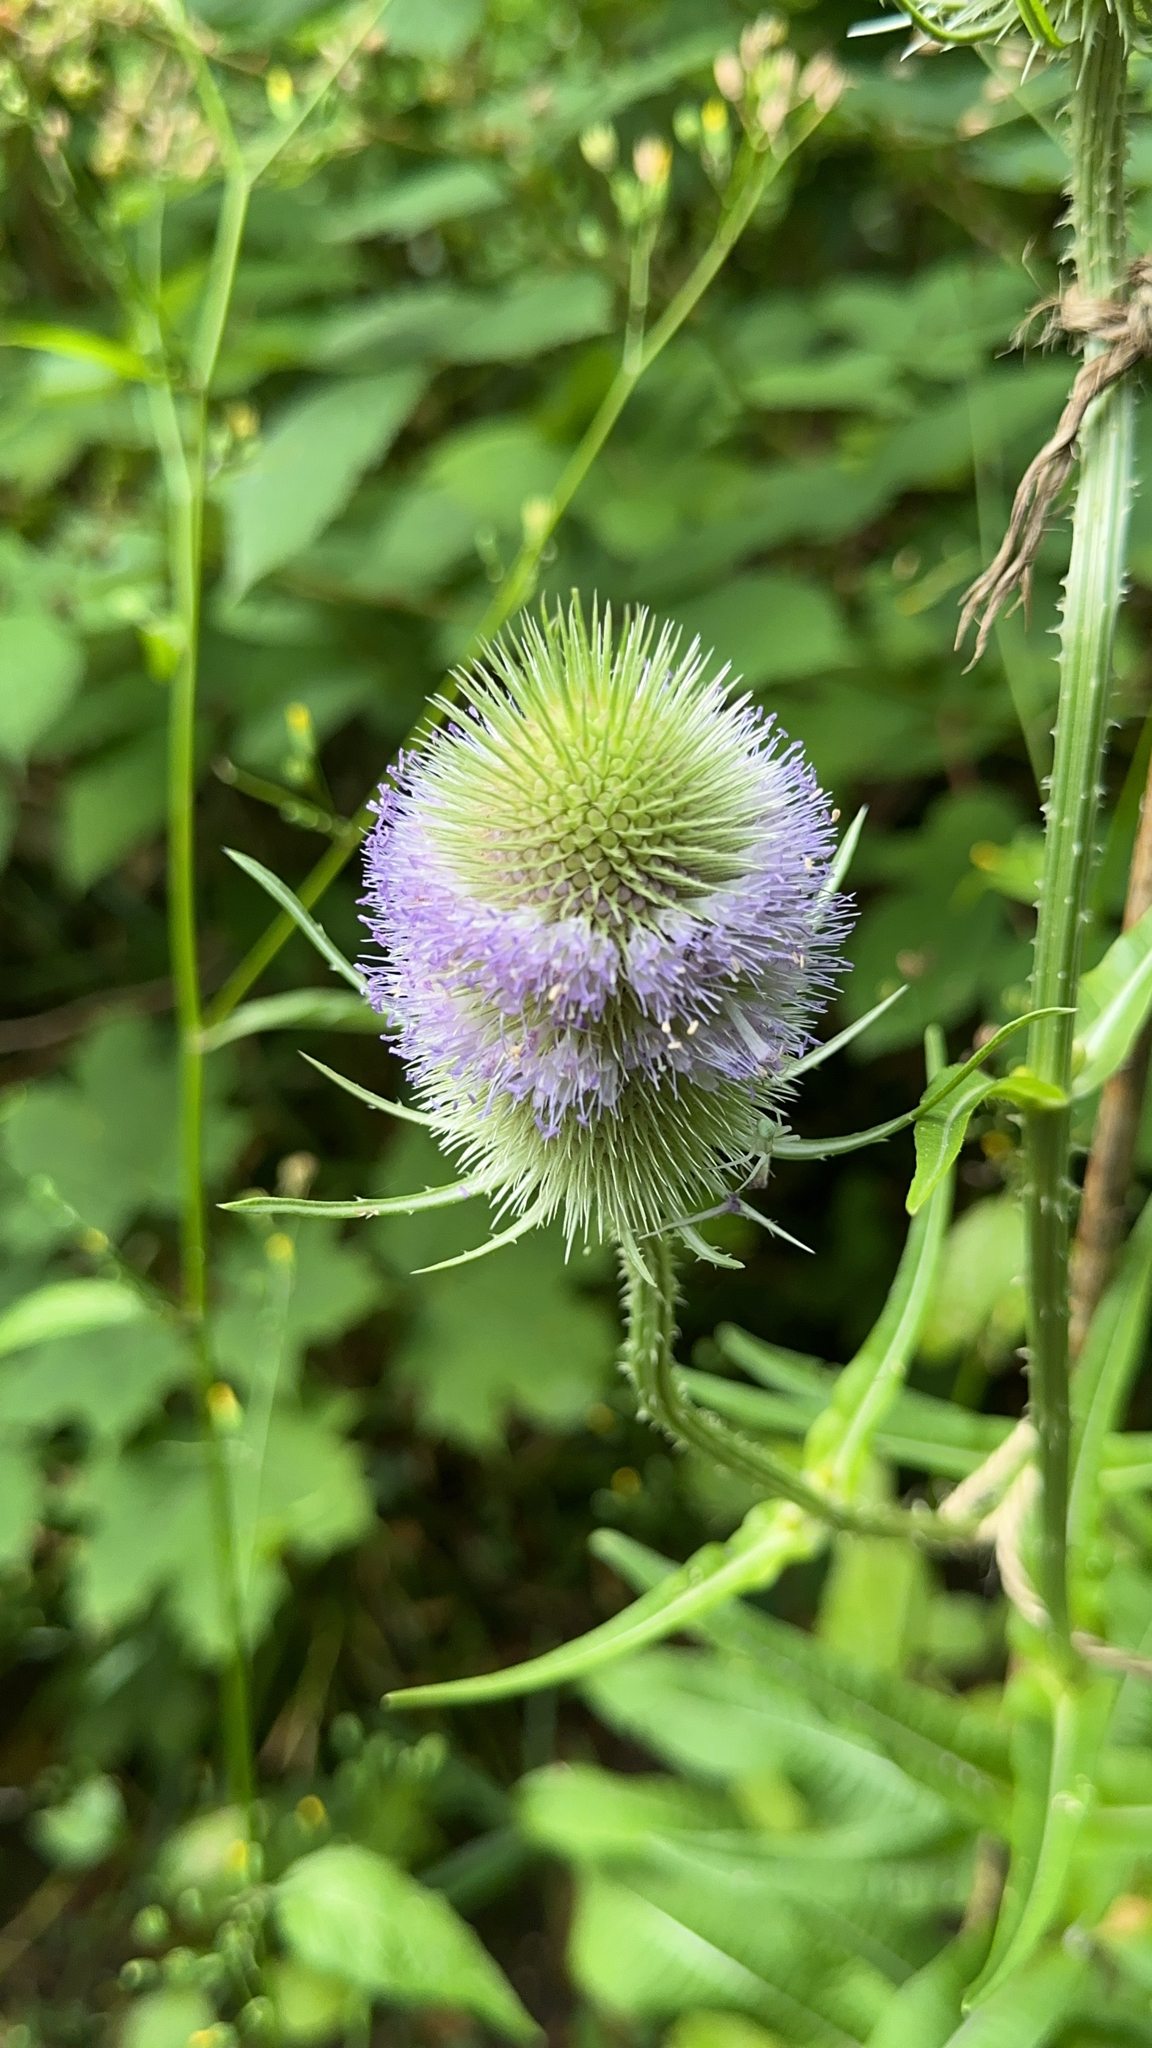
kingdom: Plantae
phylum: Tracheophyta
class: Magnoliopsida
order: Dipsacales
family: Caprifoliaceae
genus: Dipsacus
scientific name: Dipsacus fullonum
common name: Teasel
